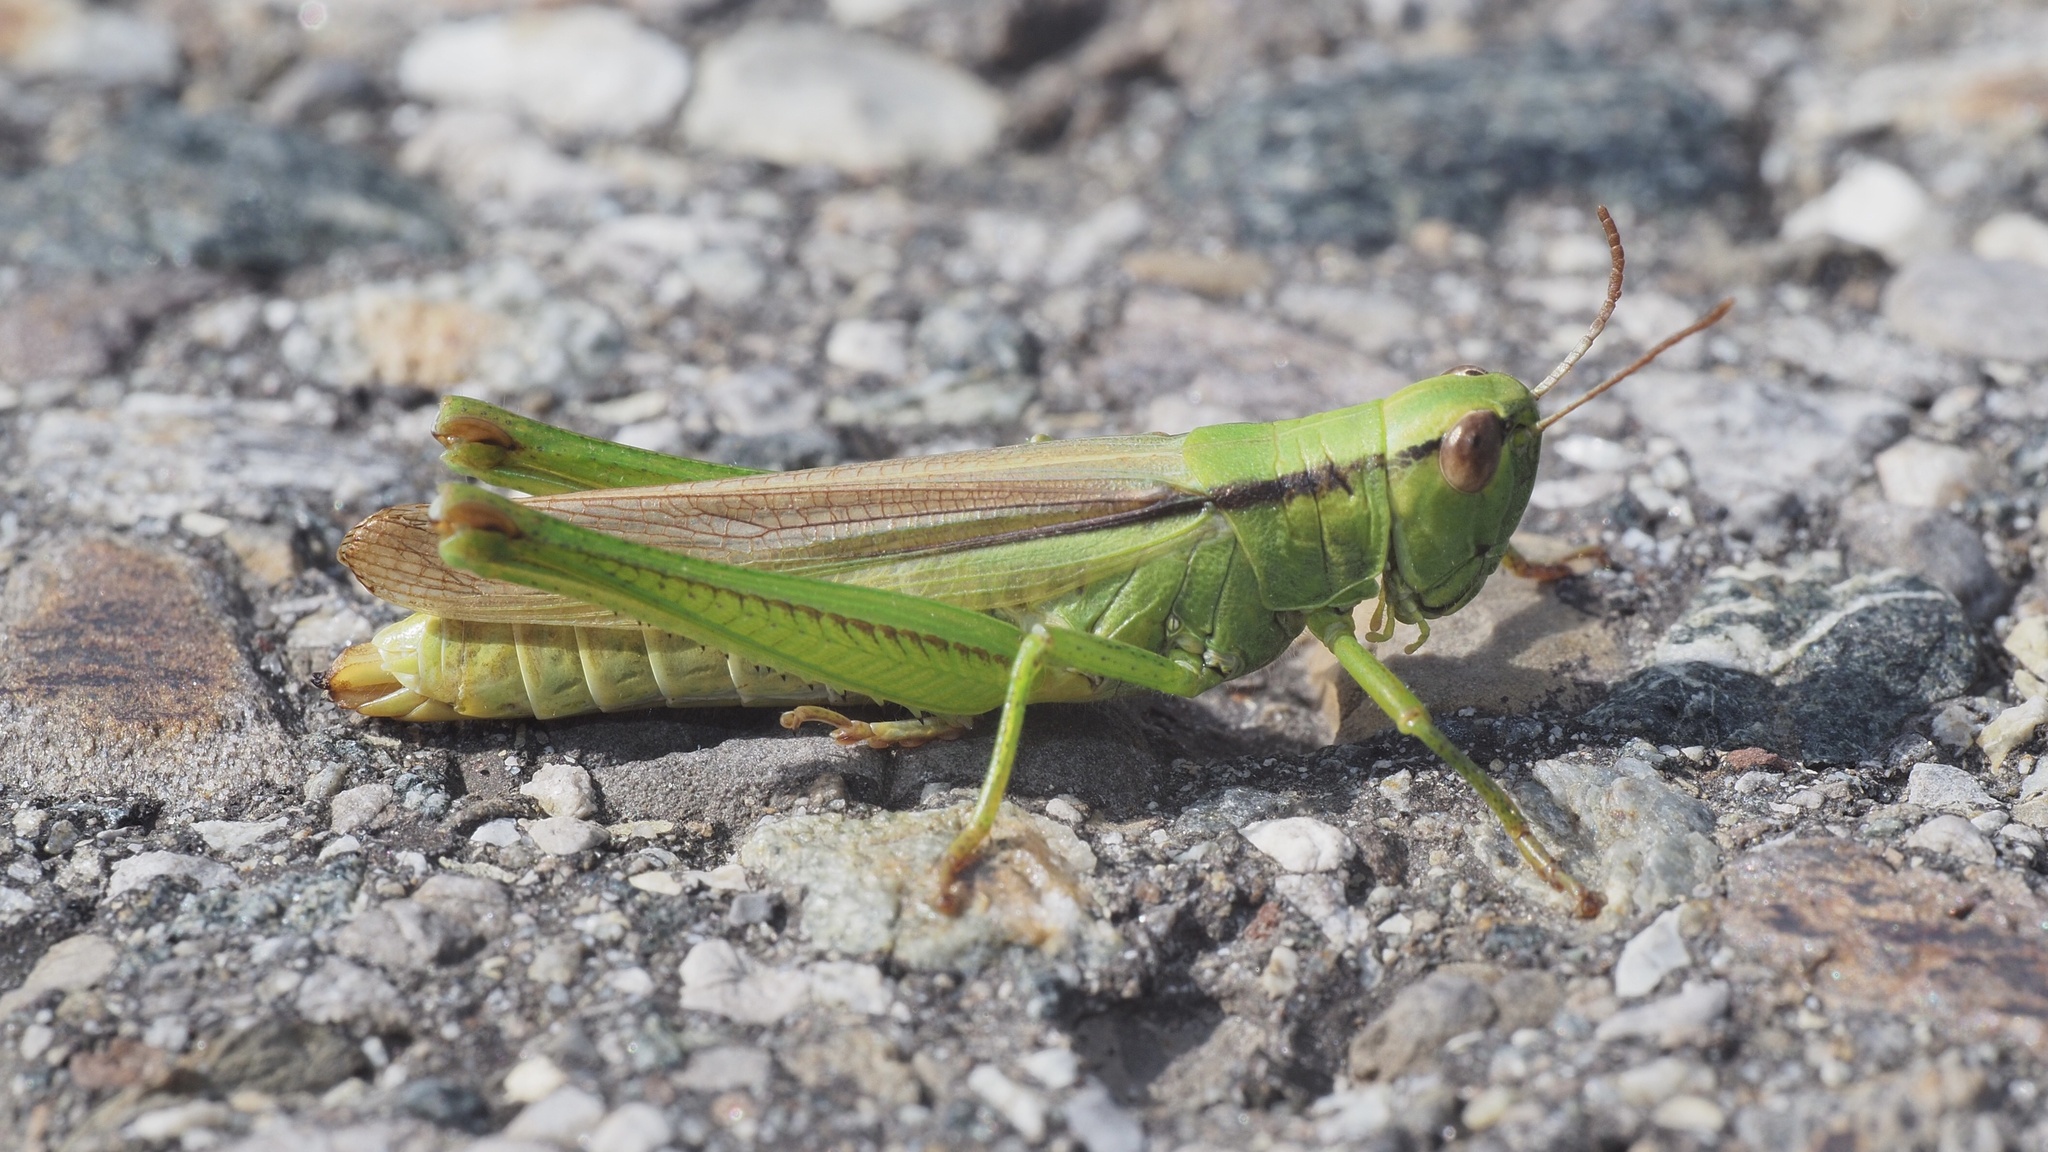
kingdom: Animalia
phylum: Arthropoda
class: Insecta
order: Orthoptera
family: Acrididae
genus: Mecostethus
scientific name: Mecostethus parapleurus
